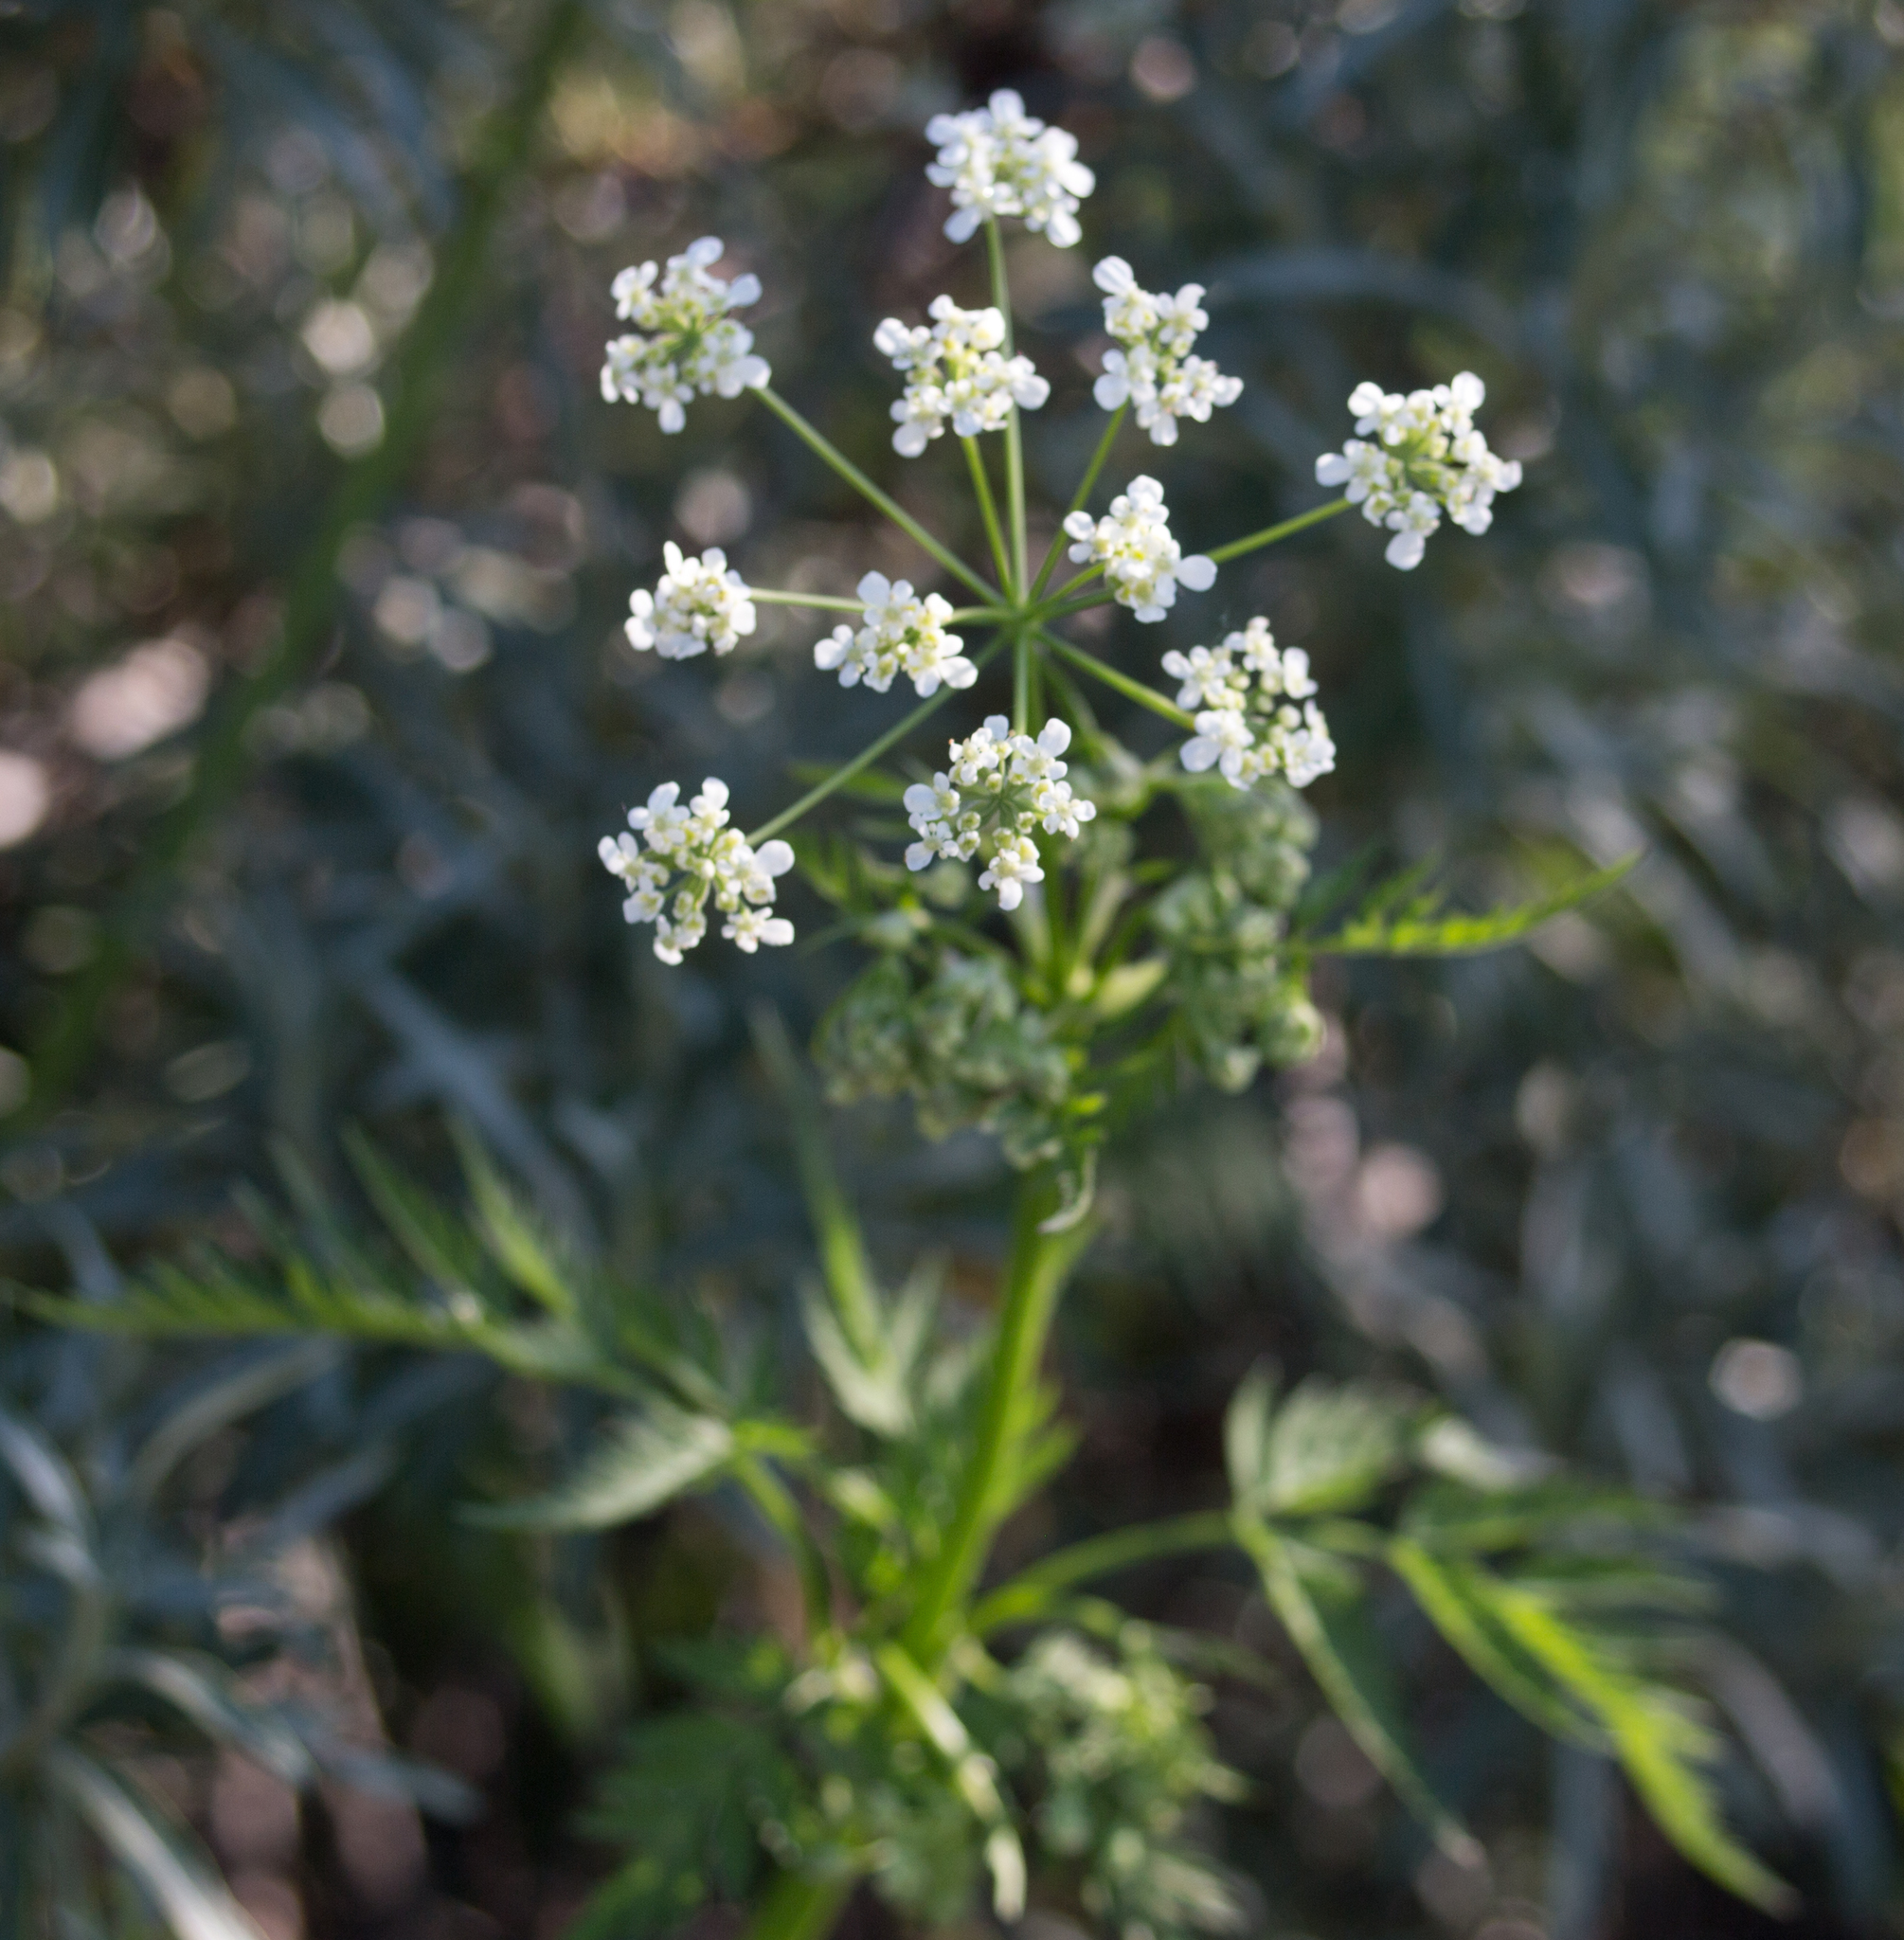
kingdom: Plantae
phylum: Tracheophyta
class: Magnoliopsida
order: Apiales
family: Apiaceae
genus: Anthriscus
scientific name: Anthriscus sylvestris
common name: Cow parsley
